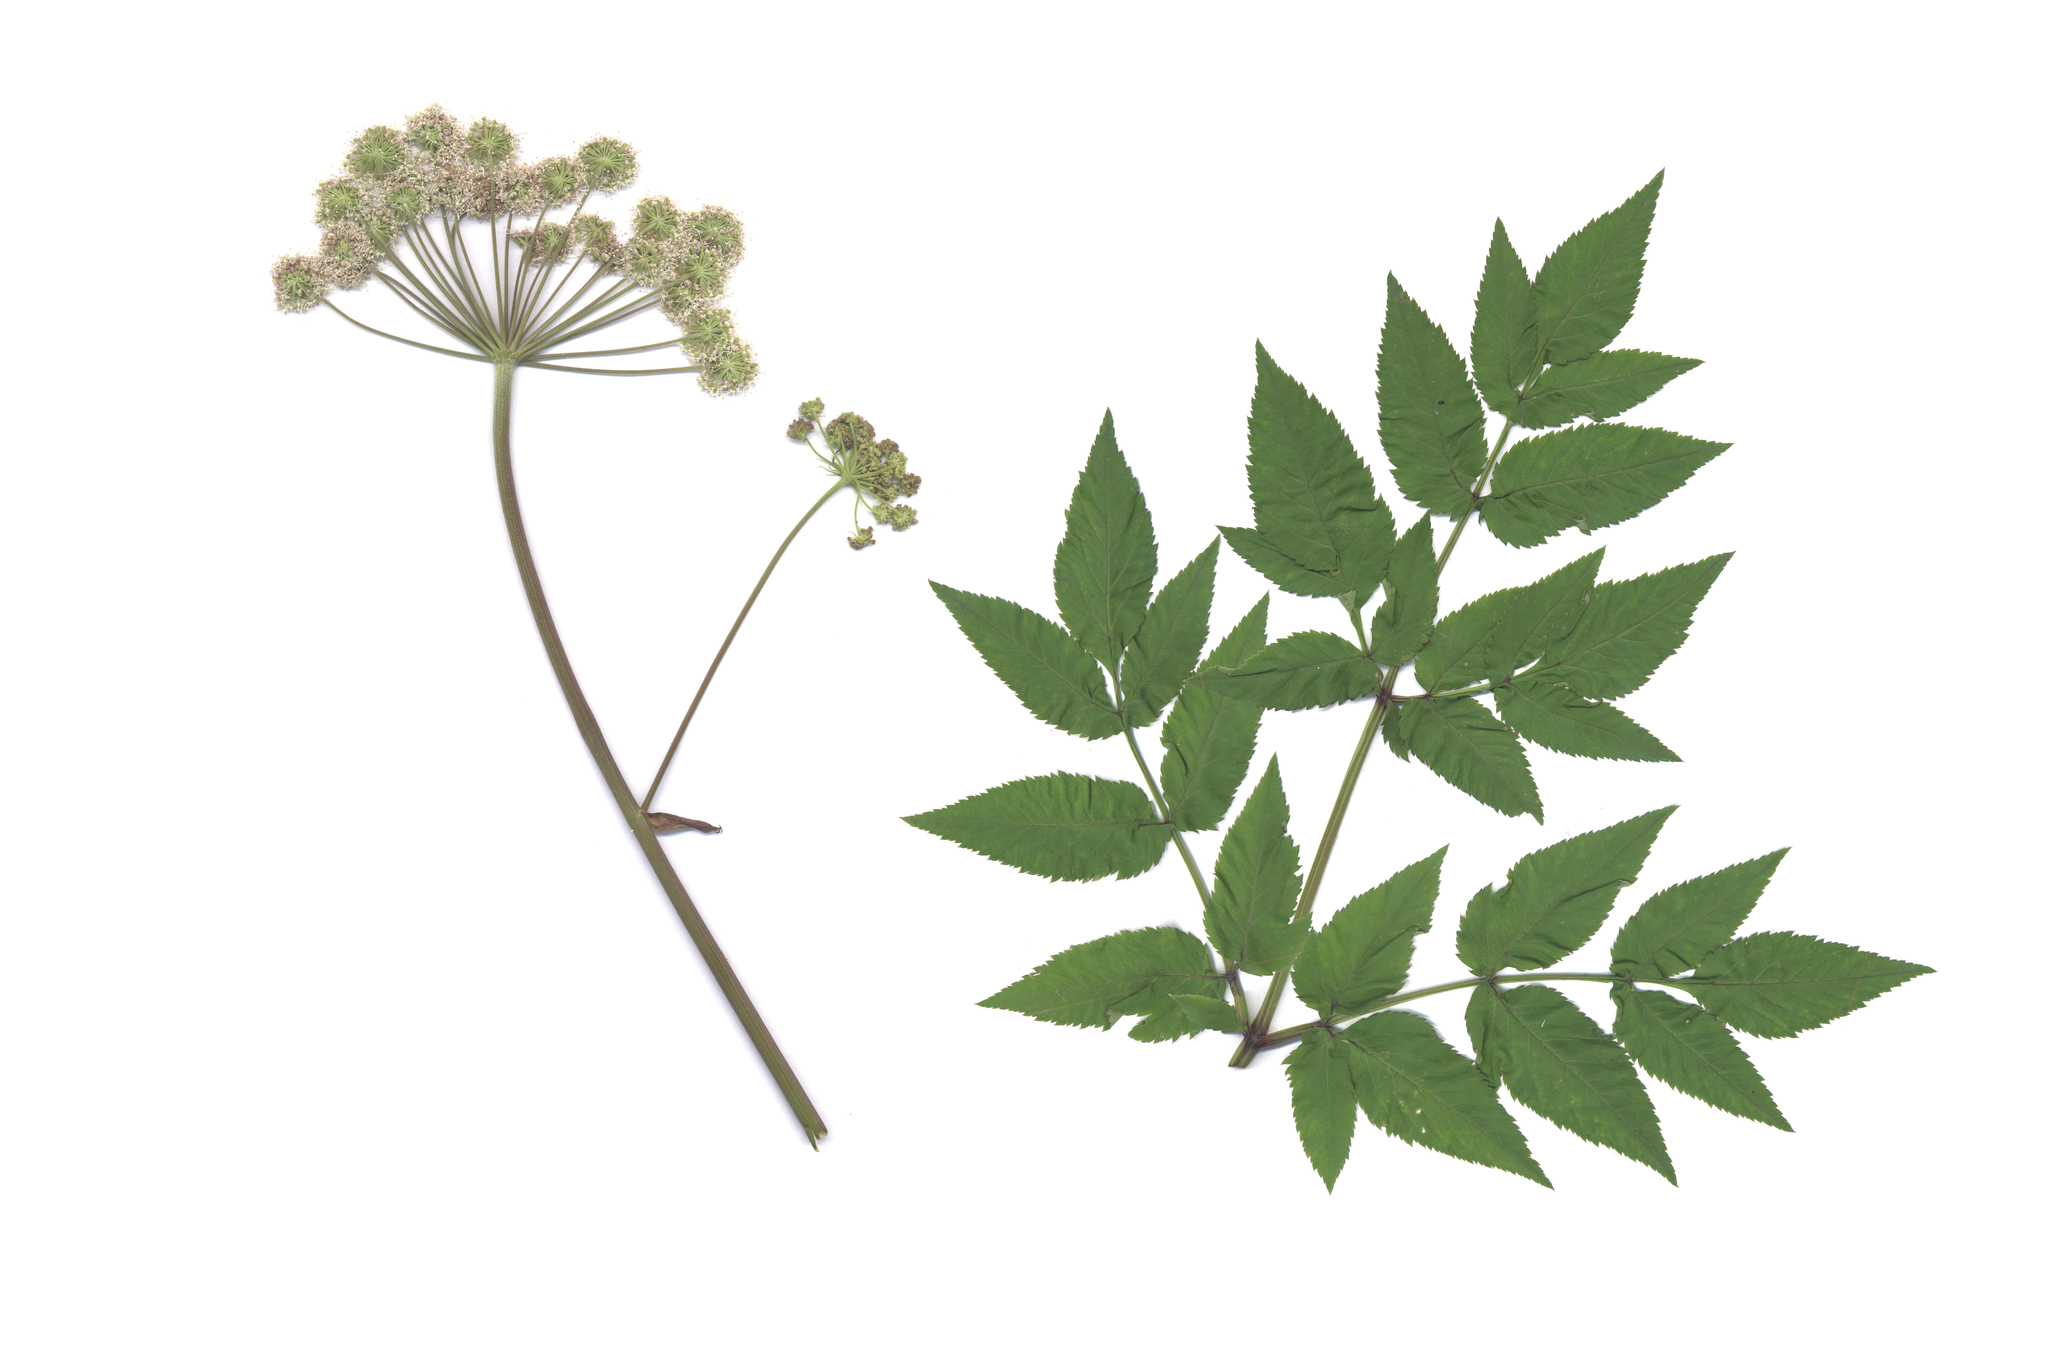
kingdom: Plantae
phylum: Tracheophyta
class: Magnoliopsida
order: Apiales
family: Apiaceae
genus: Angelica
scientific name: Angelica sylvestris
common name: Wild angelica
